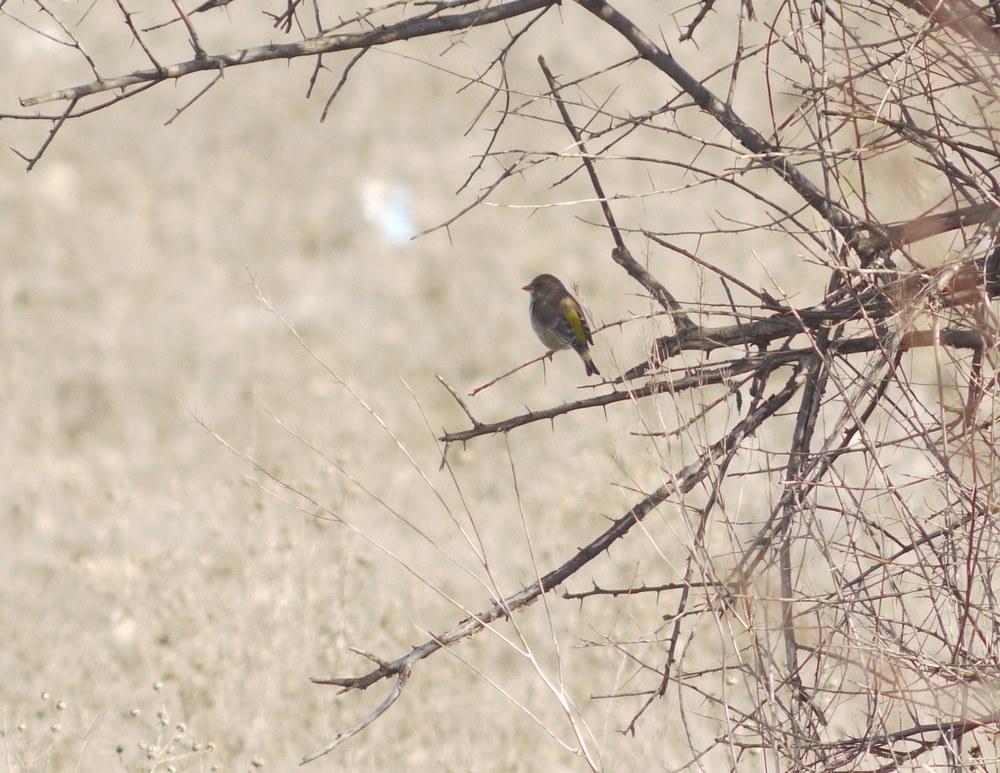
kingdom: Plantae
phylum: Tracheophyta
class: Liliopsida
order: Poales
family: Poaceae
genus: Chloris
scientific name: Chloris chloris
